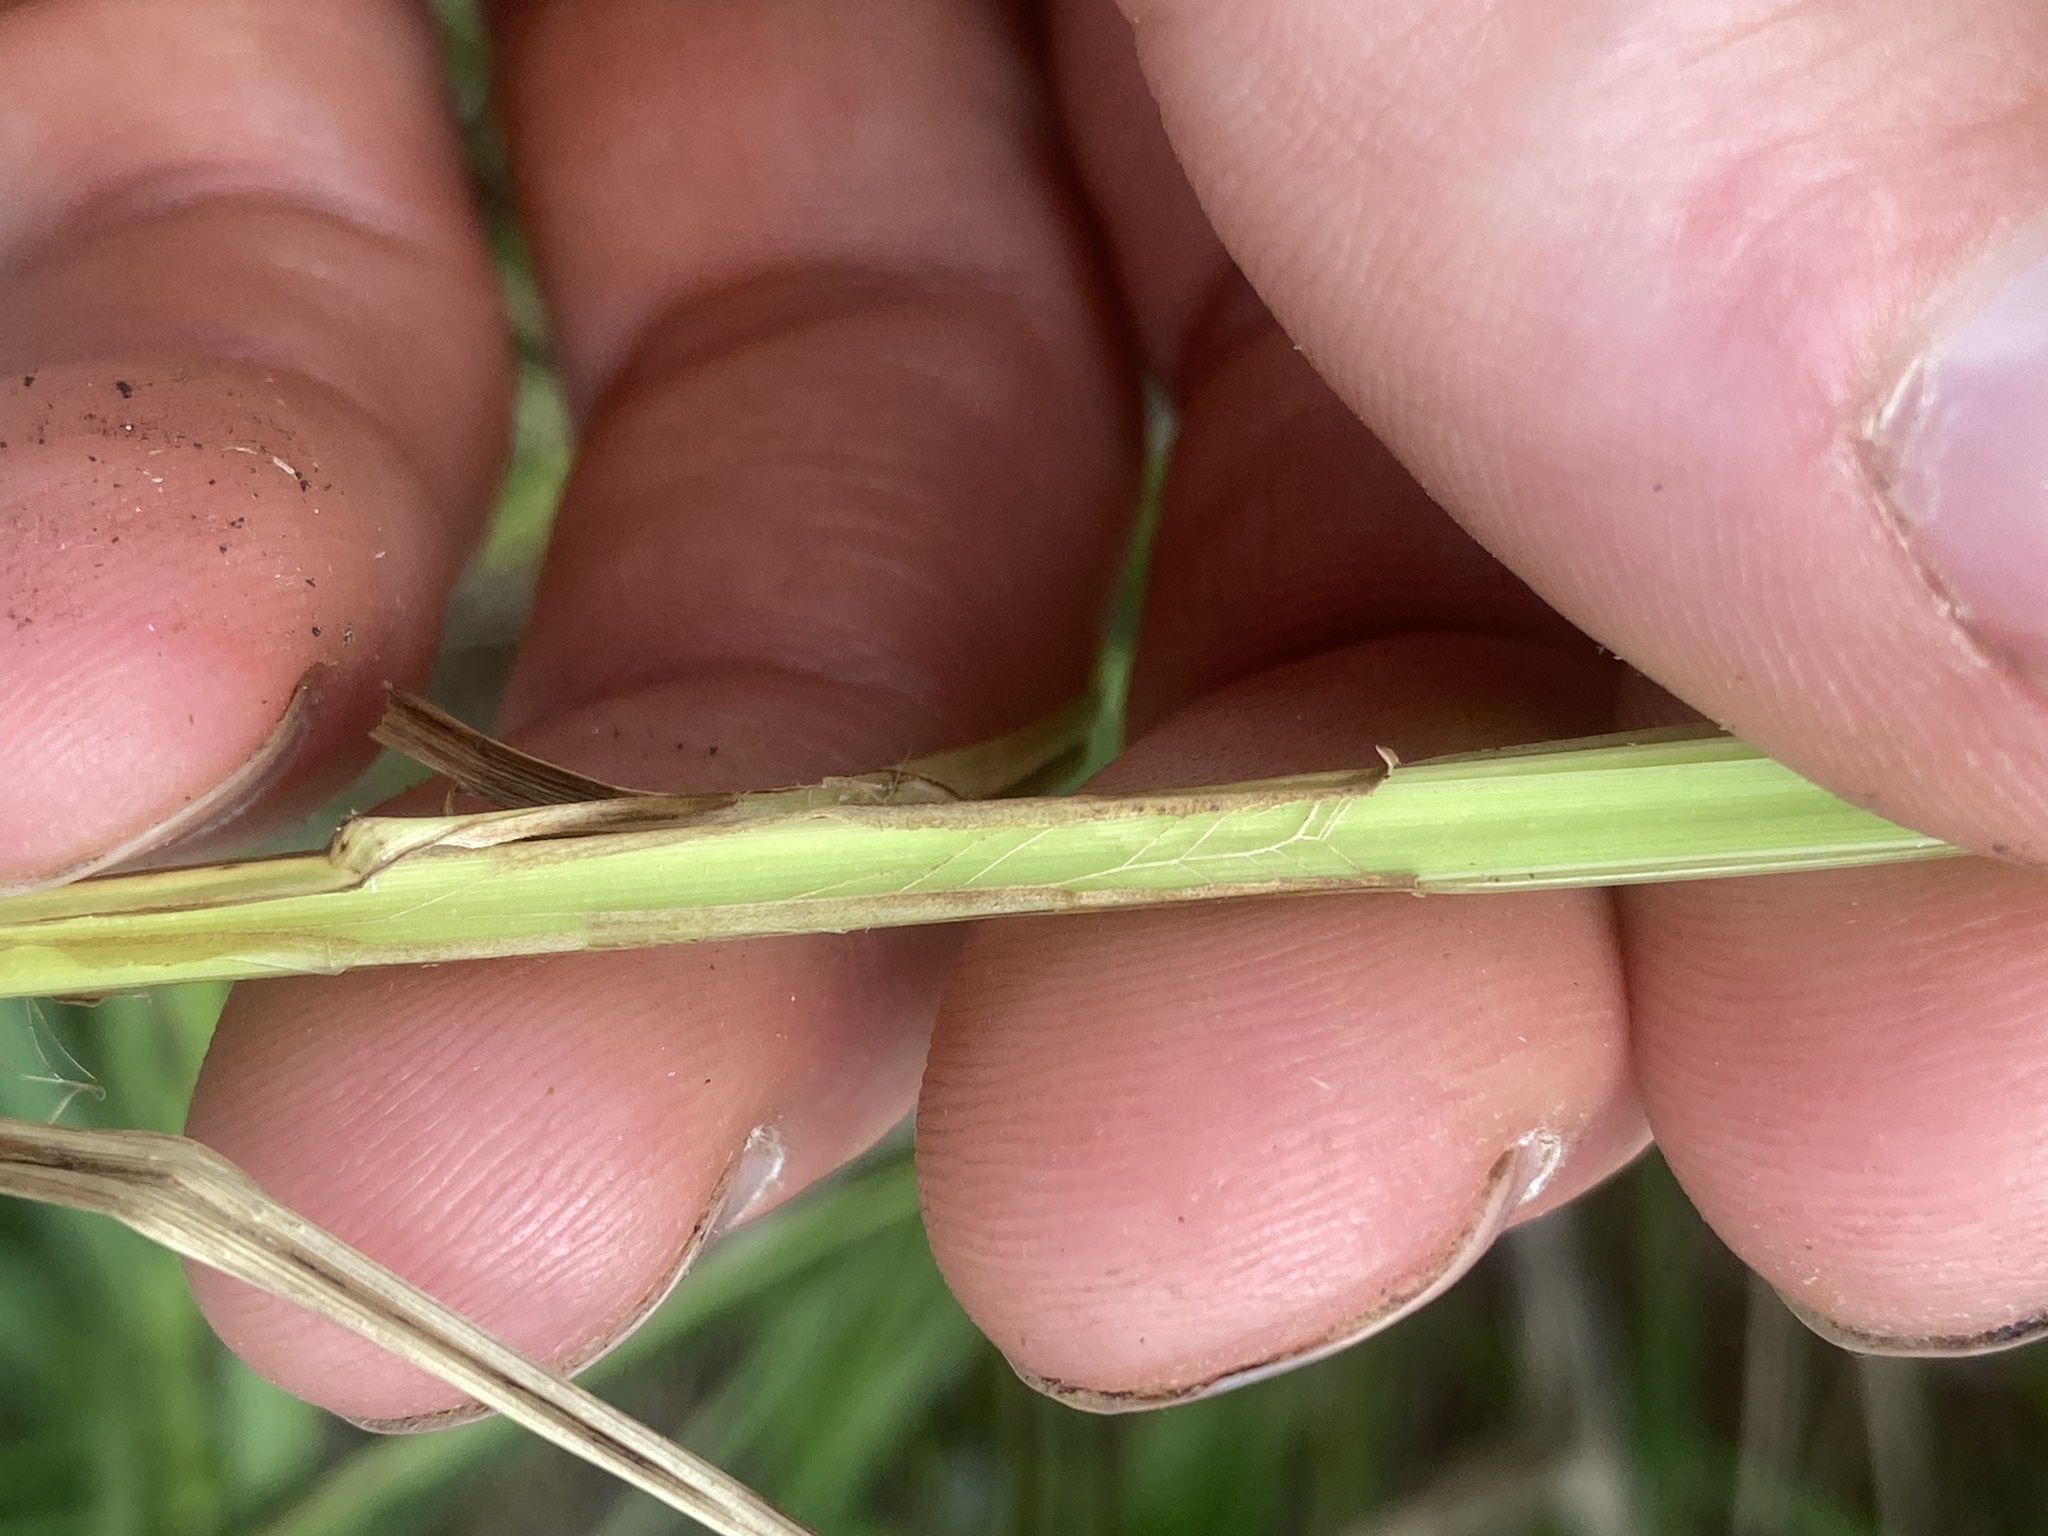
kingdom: Plantae
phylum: Tracheophyta
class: Liliopsida
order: Poales
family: Cyperaceae
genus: Carex
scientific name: Carex stricta
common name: Hummock sedge
